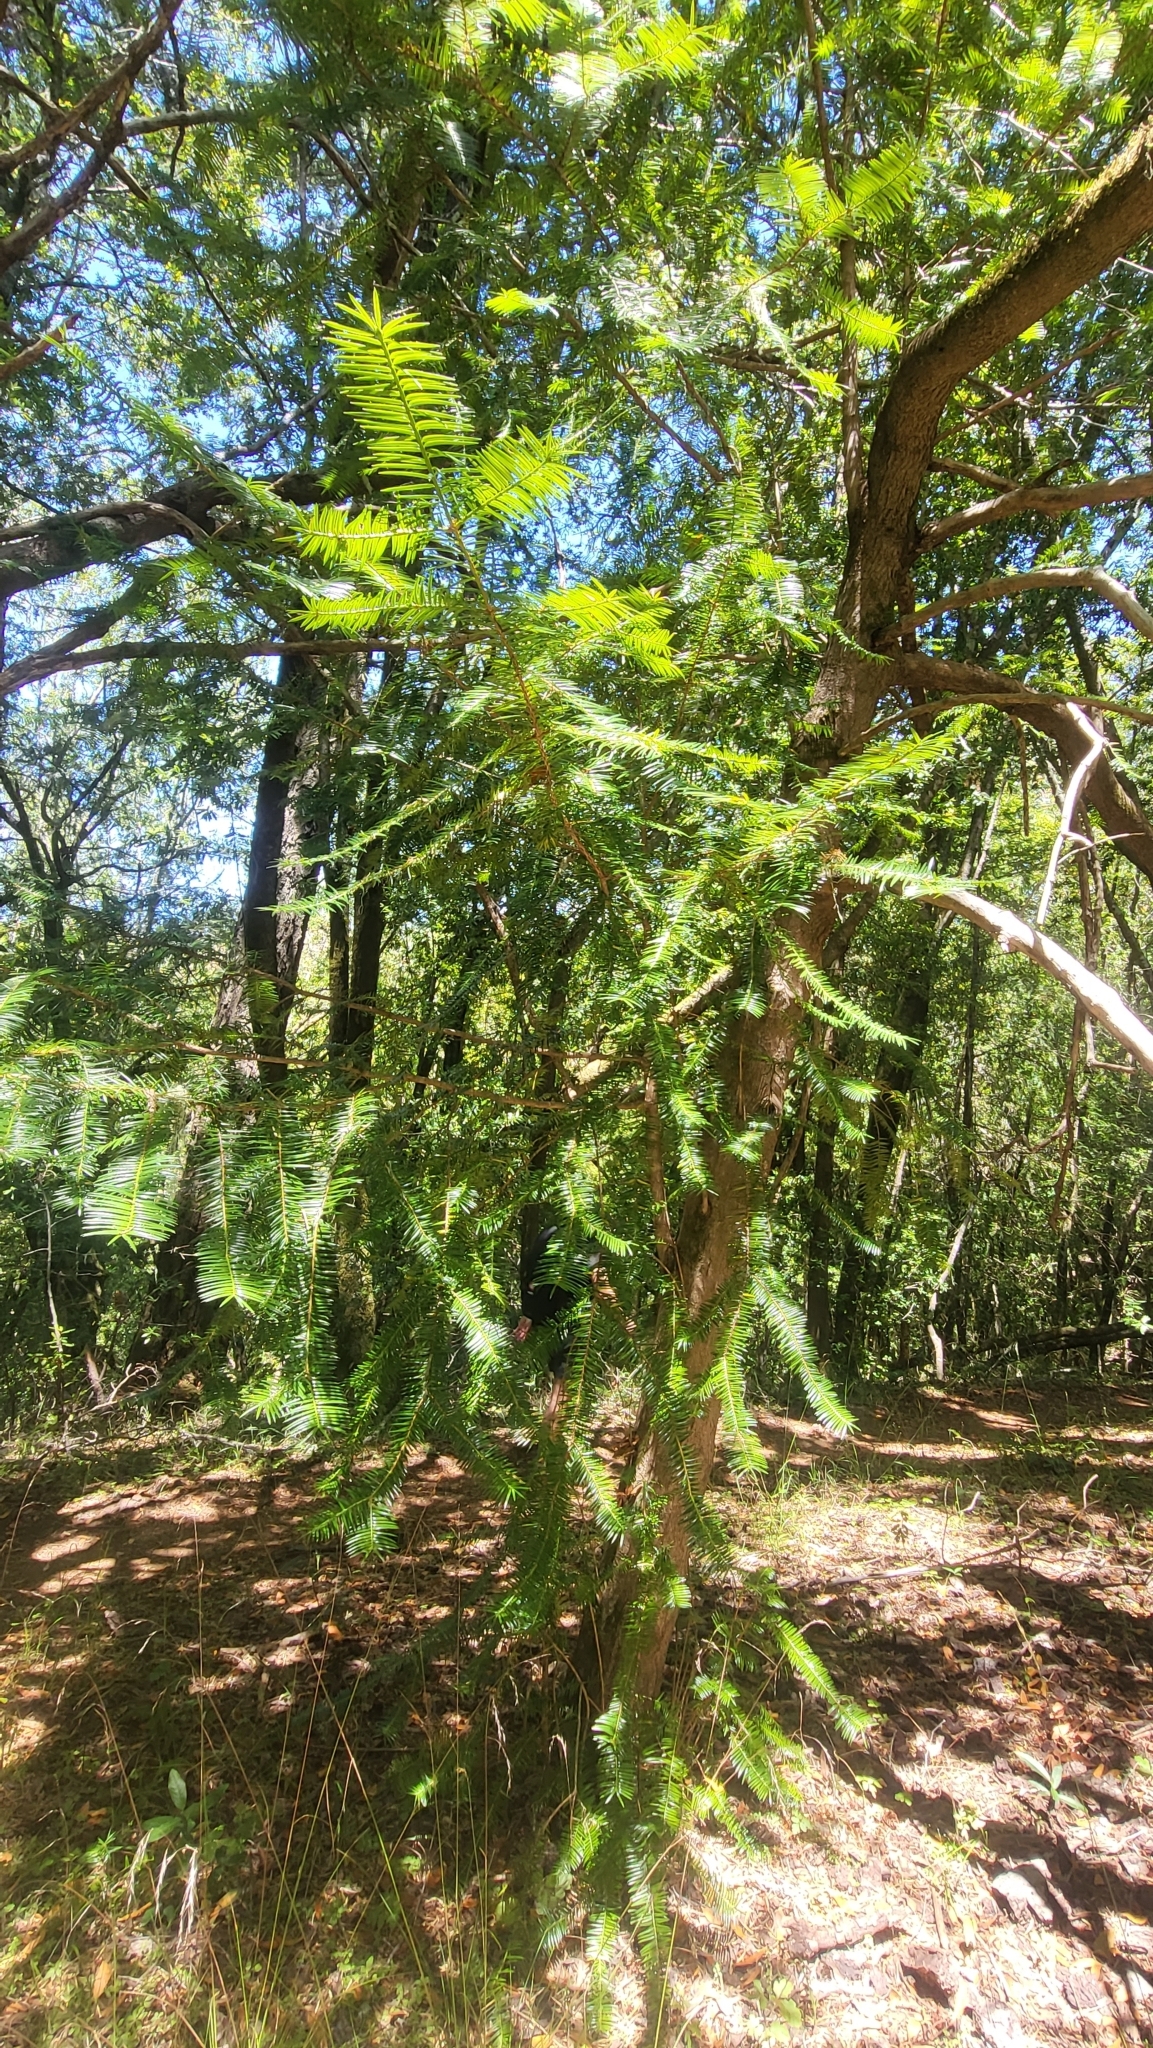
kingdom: Plantae
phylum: Tracheophyta
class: Pinopsida
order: Pinales
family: Taxaceae
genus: Torreya
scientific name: Torreya californica
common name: California torreya
